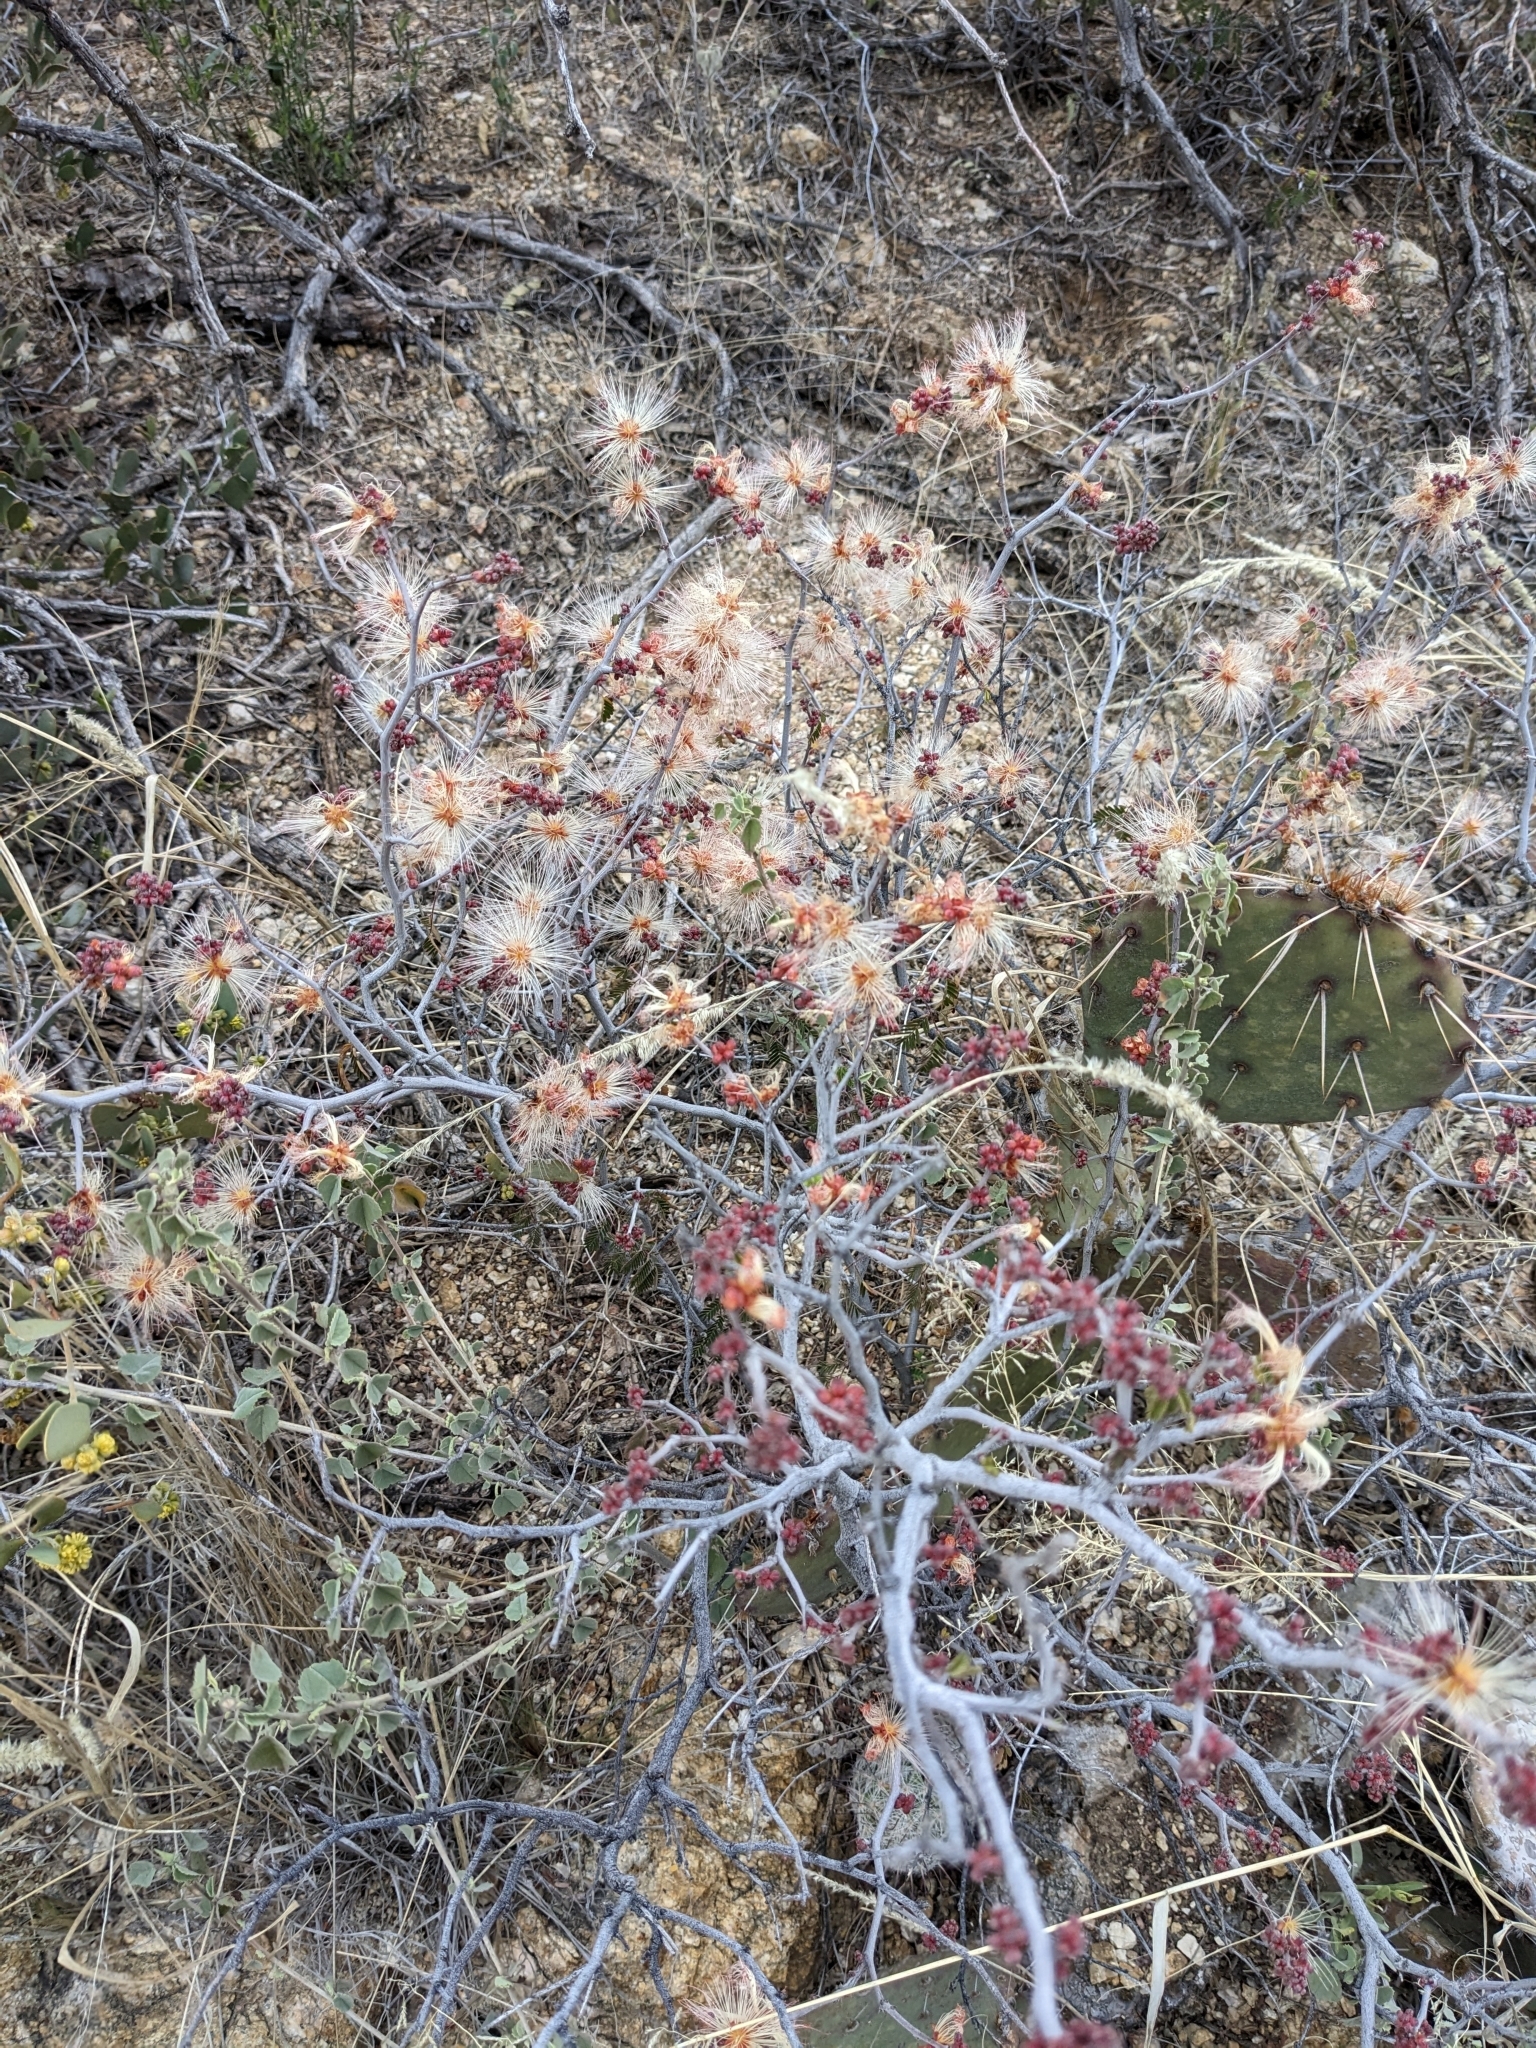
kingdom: Plantae
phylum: Tracheophyta
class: Magnoliopsida
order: Fabales
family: Fabaceae
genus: Calliandra
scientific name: Calliandra eriophylla
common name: Fairy-duster
